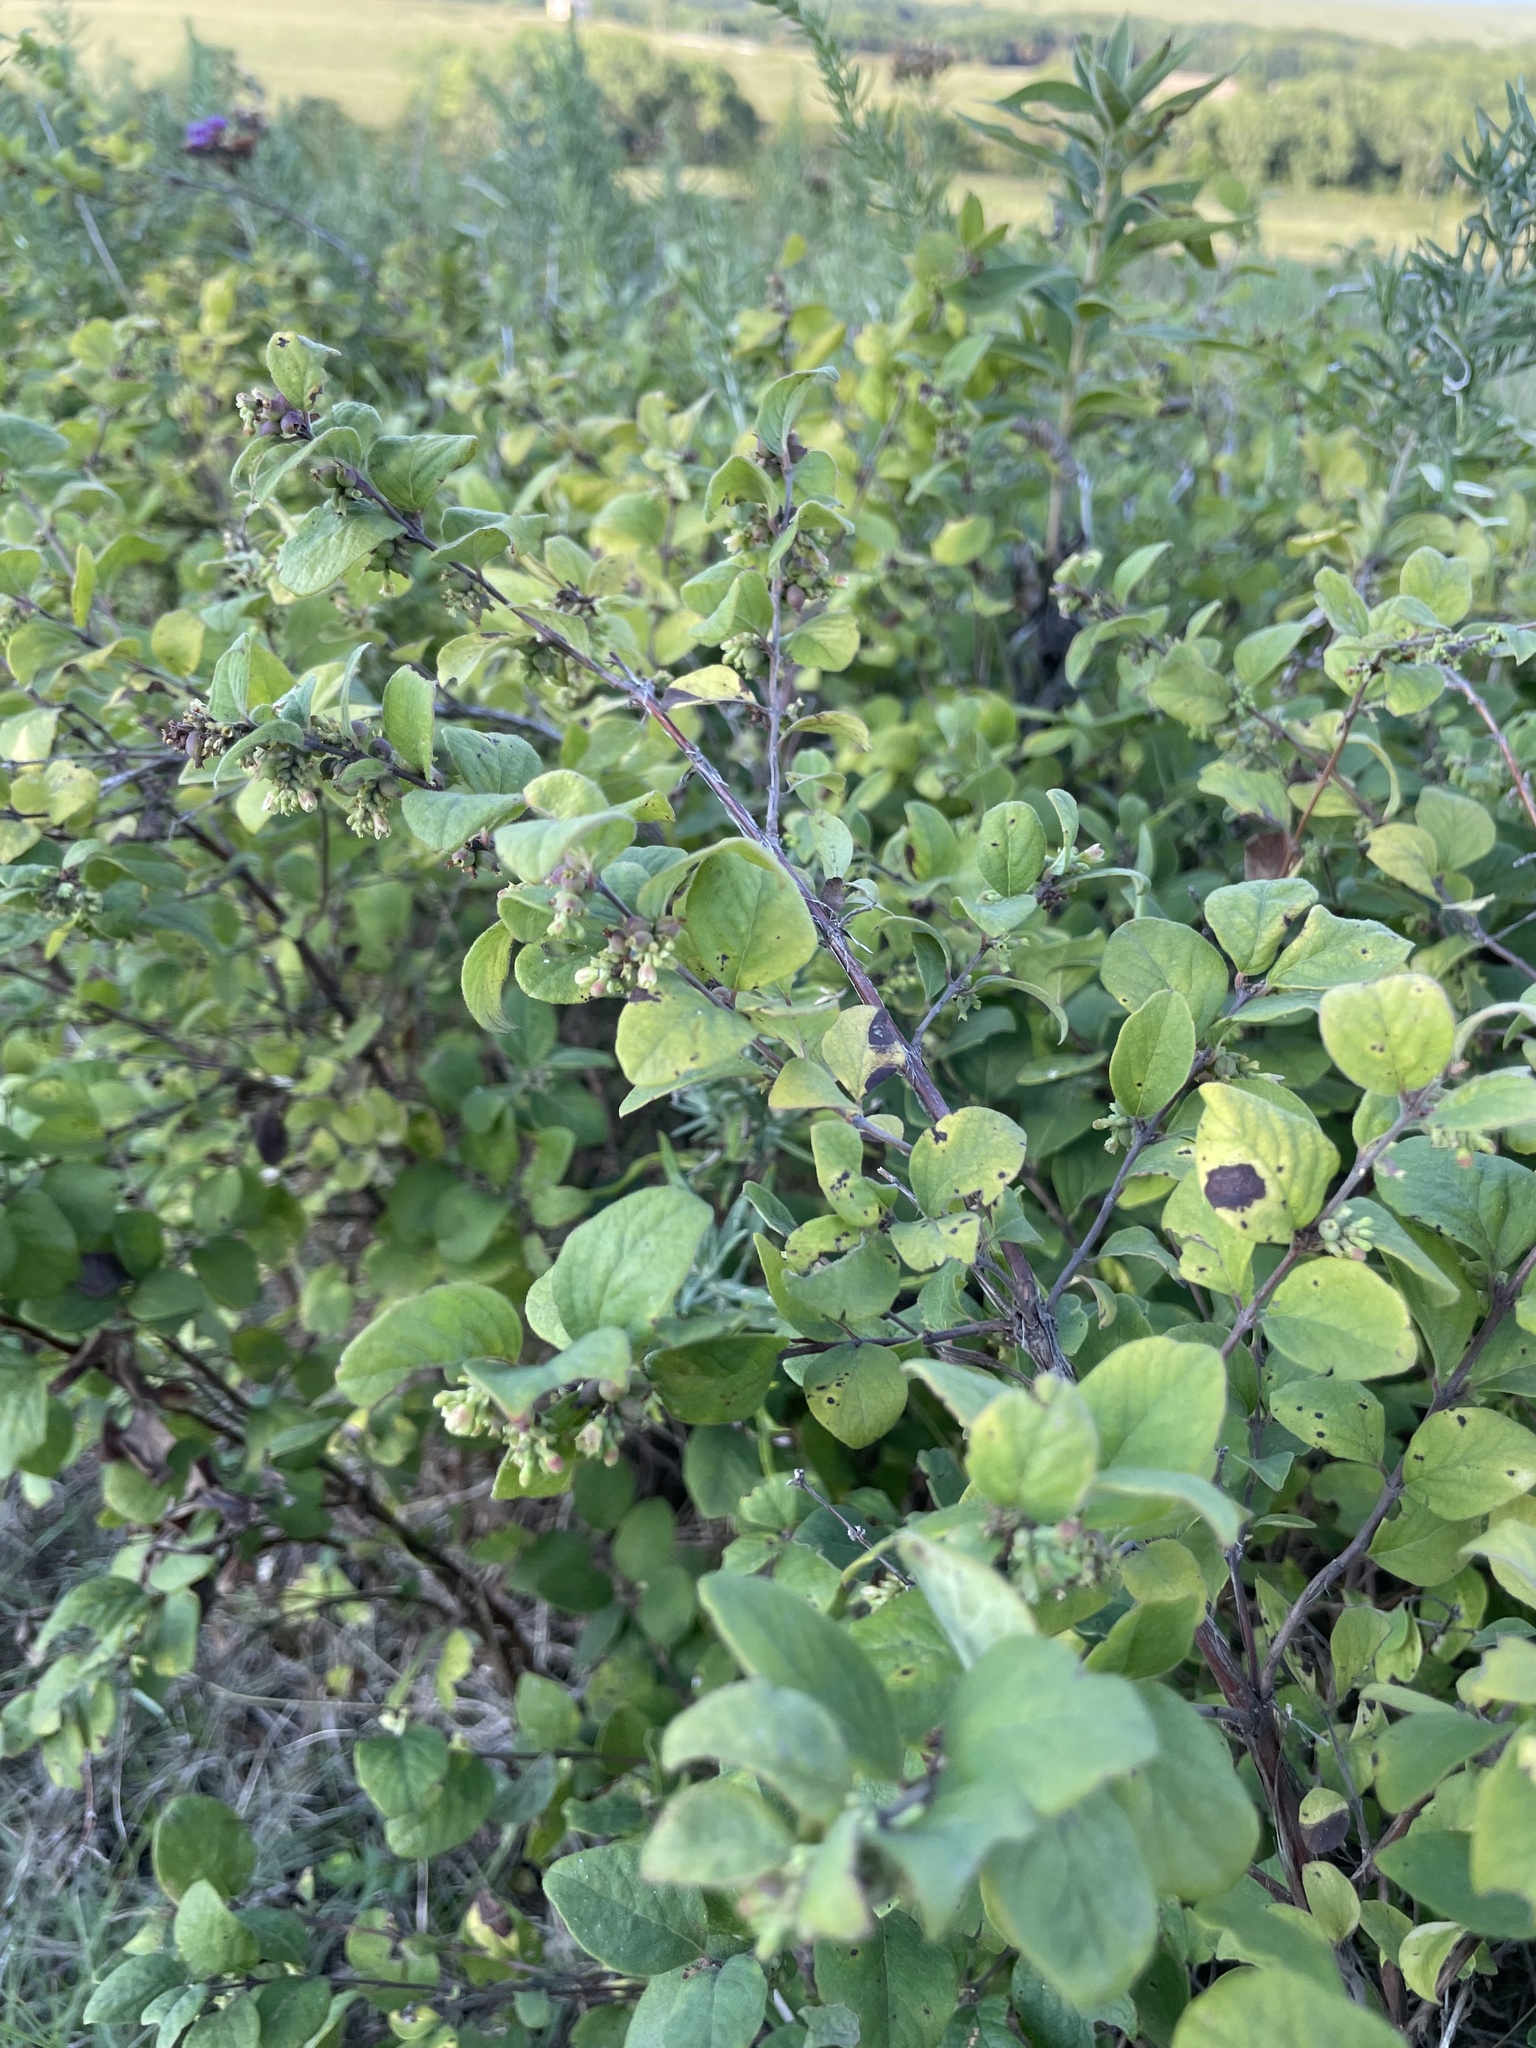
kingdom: Plantae
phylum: Tracheophyta
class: Magnoliopsida
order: Dipsacales
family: Caprifoliaceae
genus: Symphoricarpos
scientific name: Symphoricarpos orbiculatus
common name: Coralberry
